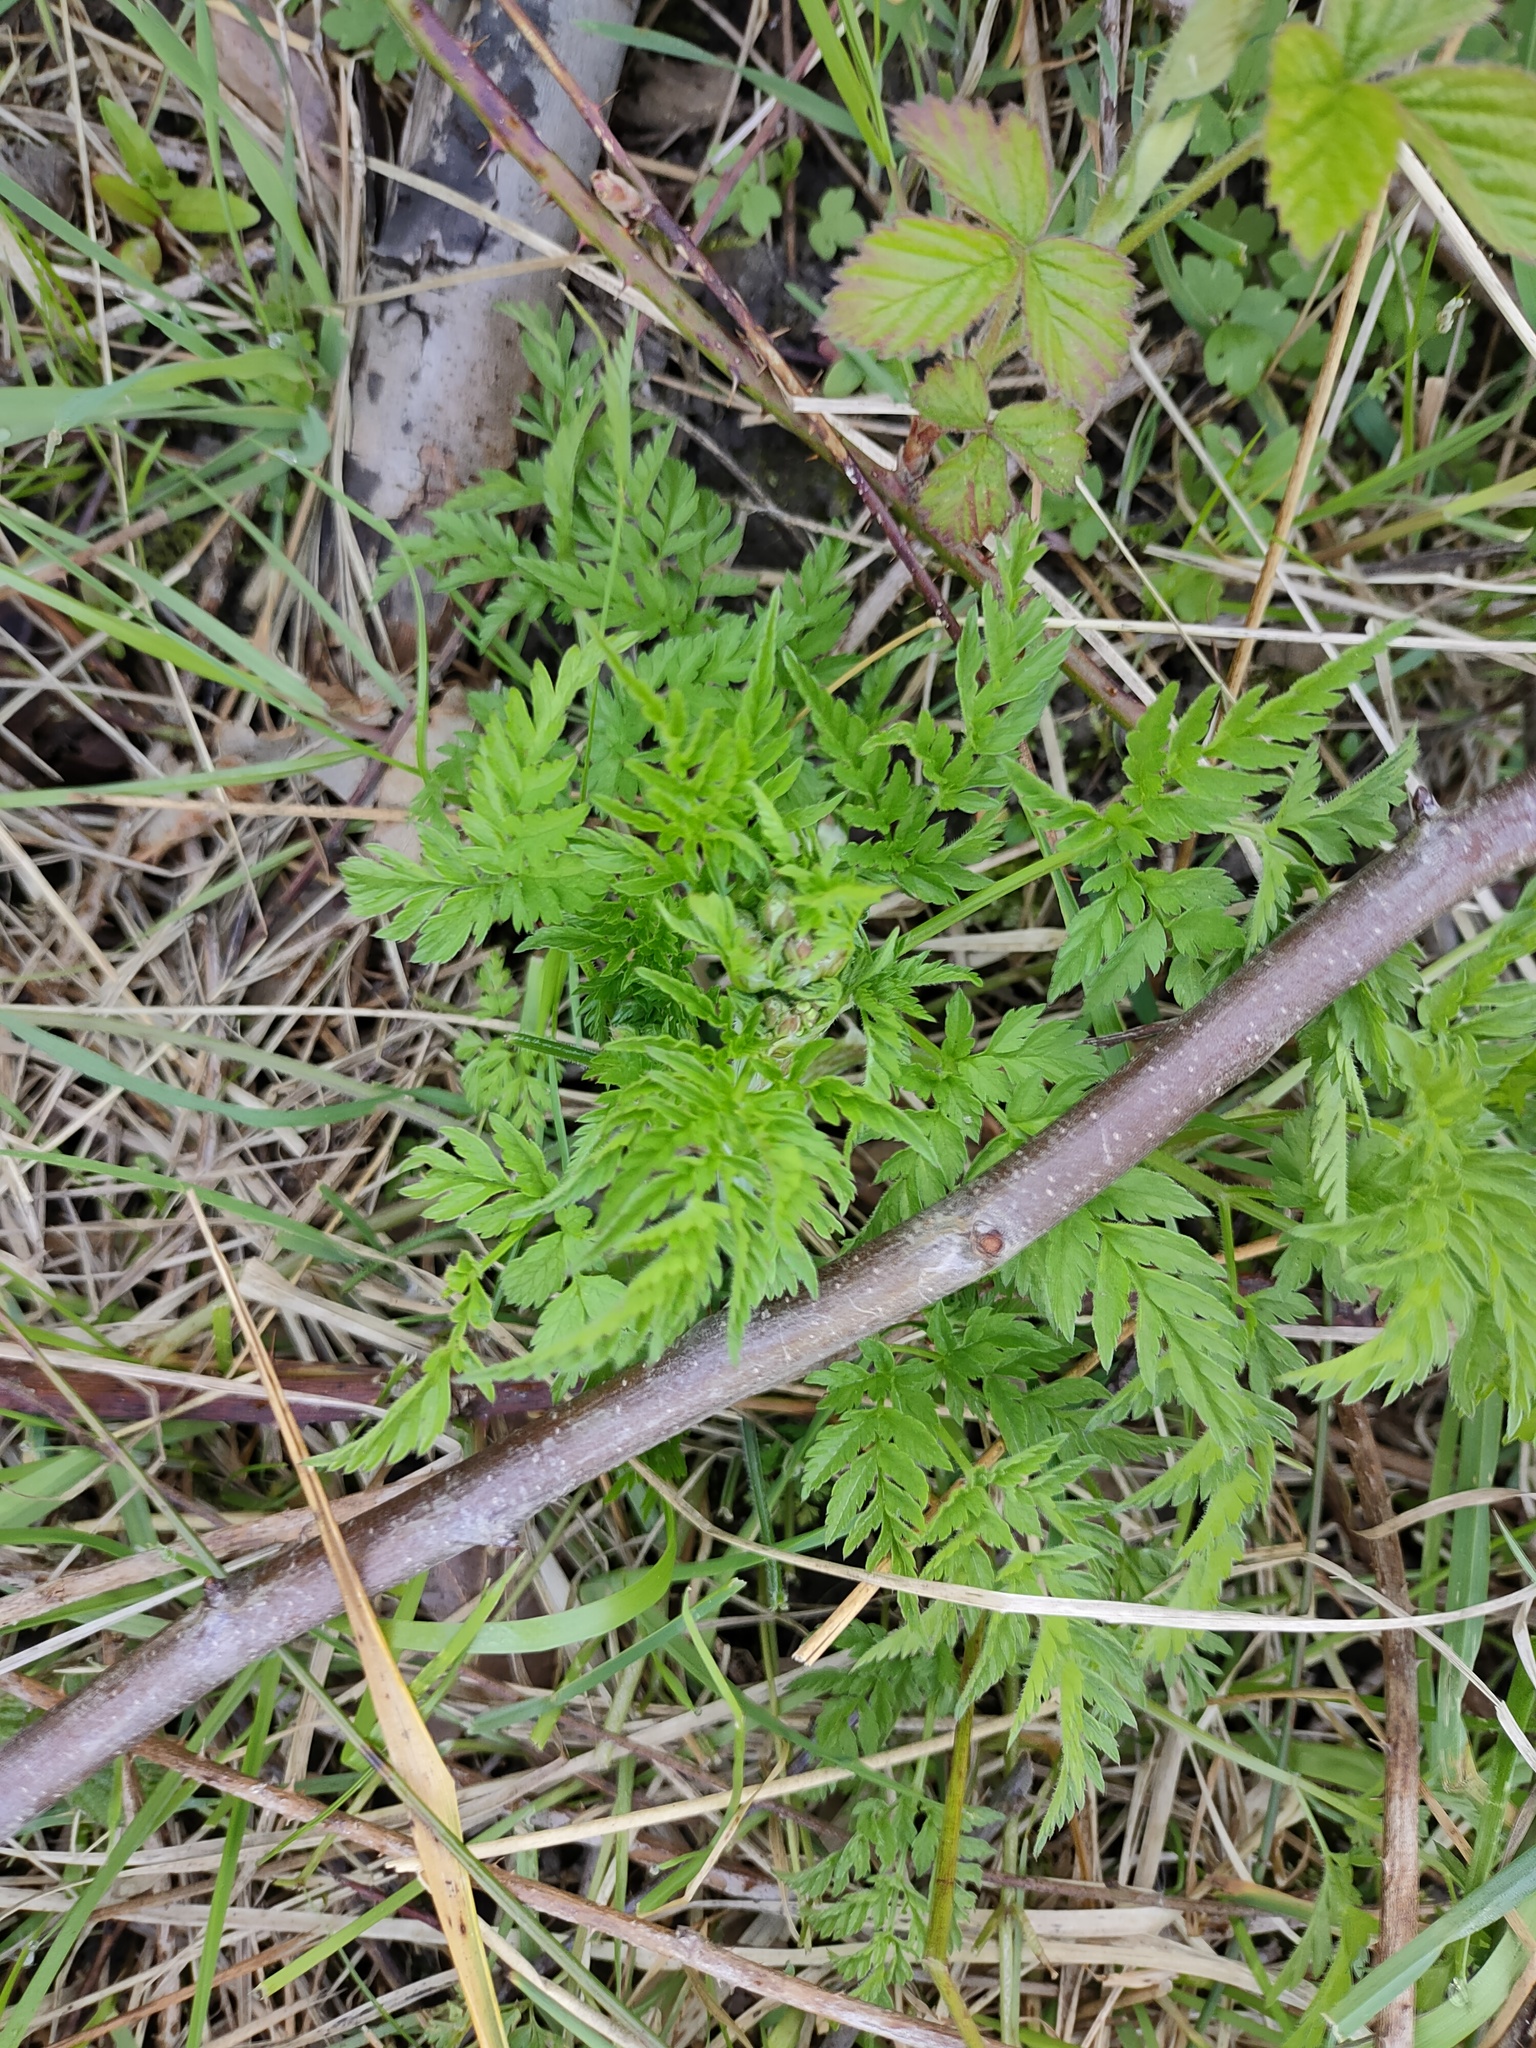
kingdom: Plantae
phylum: Tracheophyta
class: Magnoliopsida
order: Apiales
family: Apiaceae
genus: Anthriscus
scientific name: Anthriscus sylvestris
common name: Cow parsley
